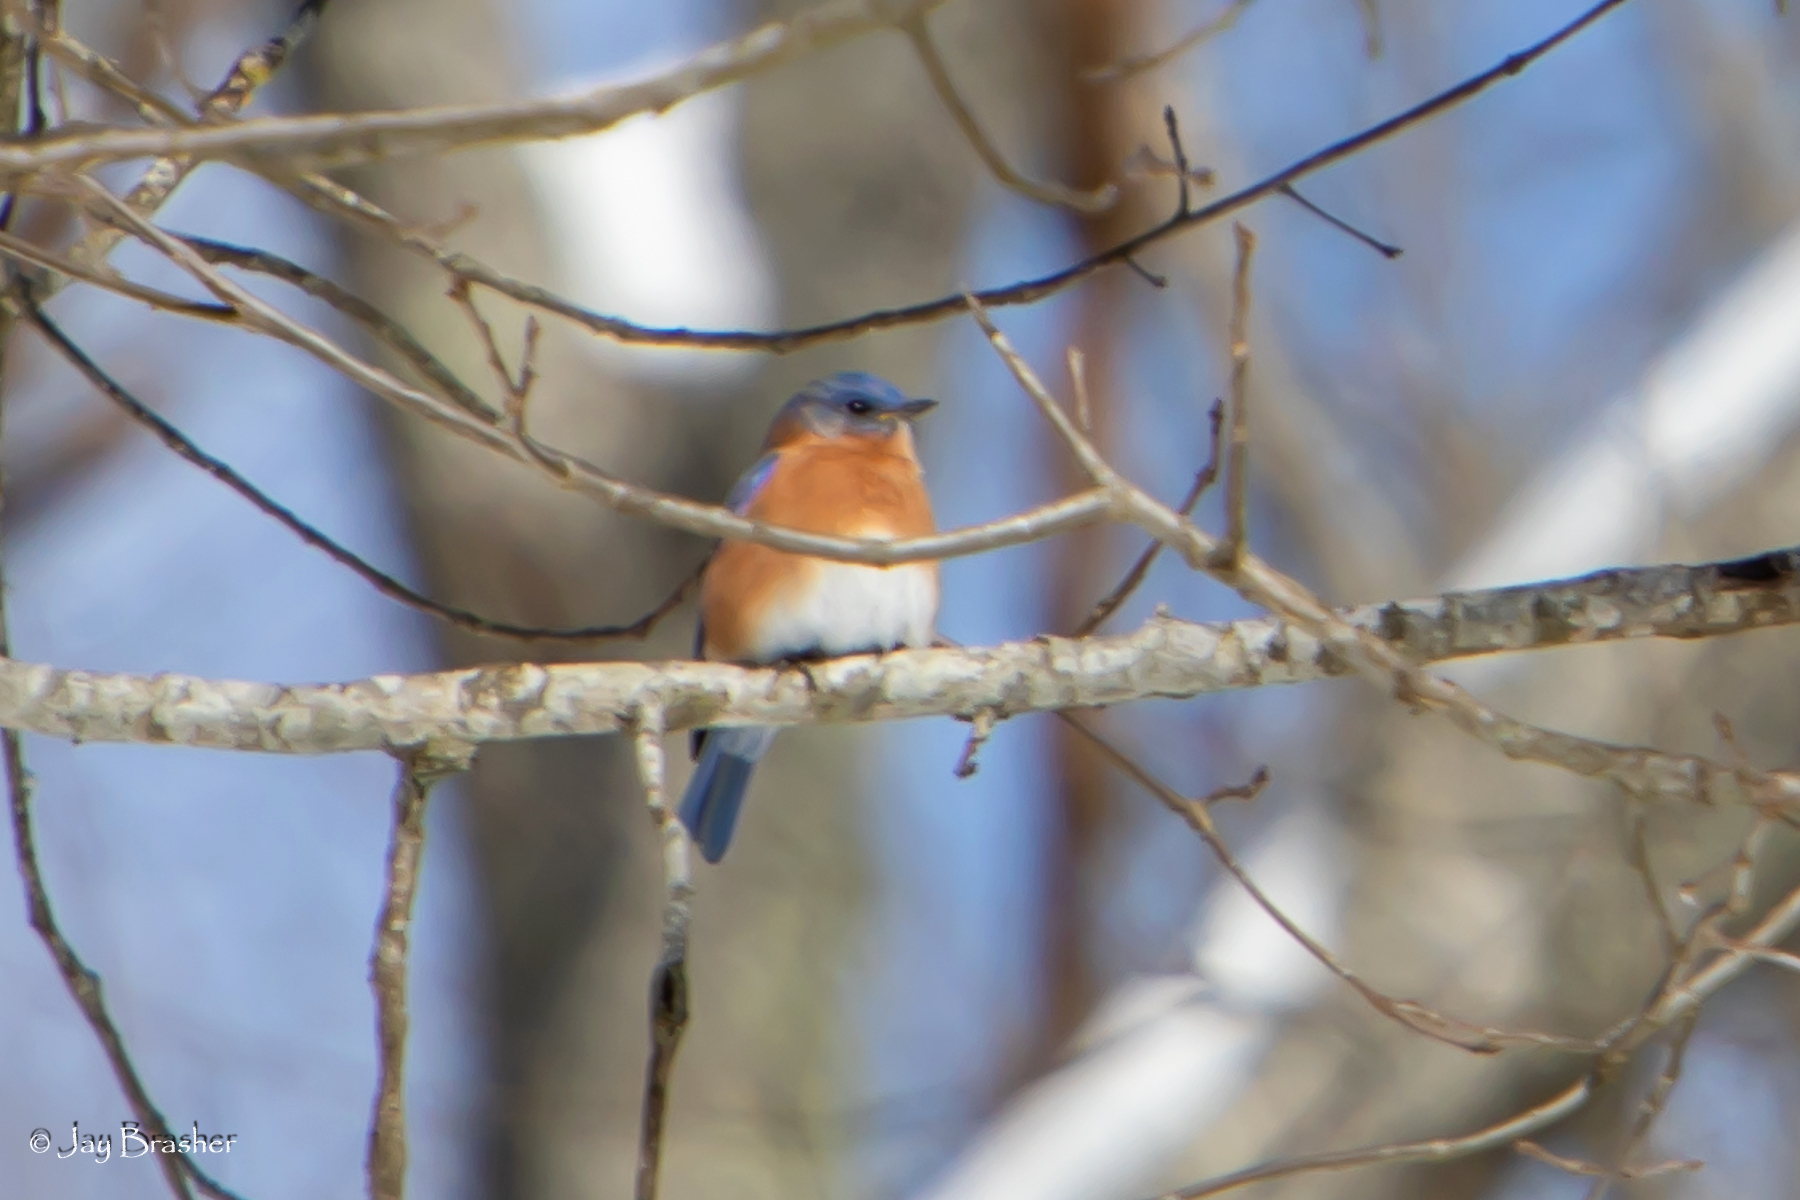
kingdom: Animalia
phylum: Chordata
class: Aves
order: Passeriformes
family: Turdidae
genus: Sialia
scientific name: Sialia sialis
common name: Eastern bluebird
